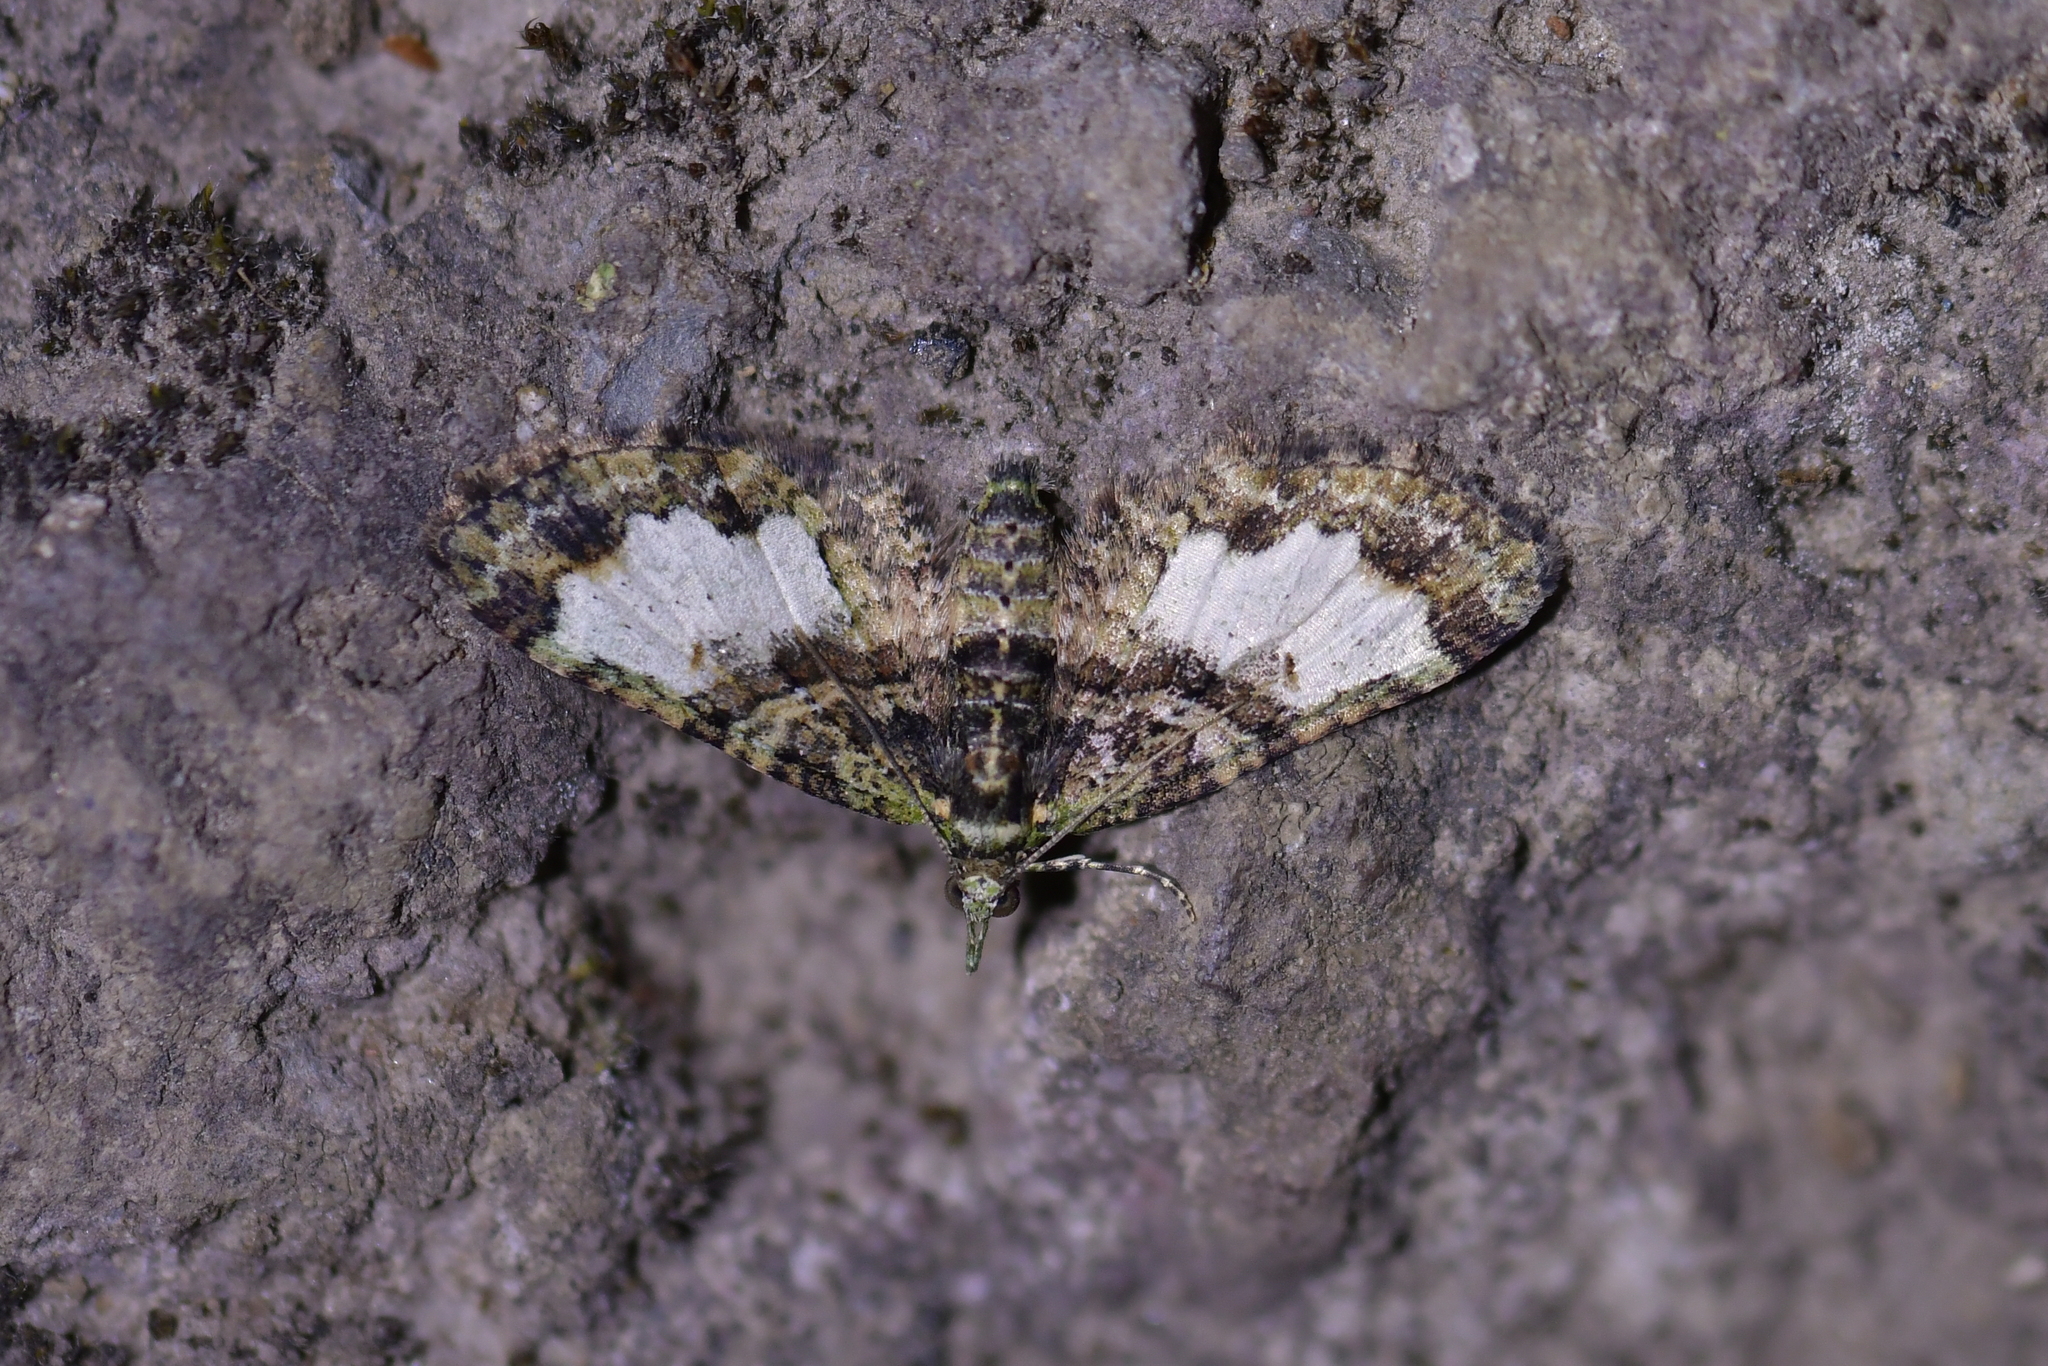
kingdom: Animalia
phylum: Arthropoda
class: Insecta
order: Lepidoptera
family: Geometridae
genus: Idaea
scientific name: Idaea mutanda
